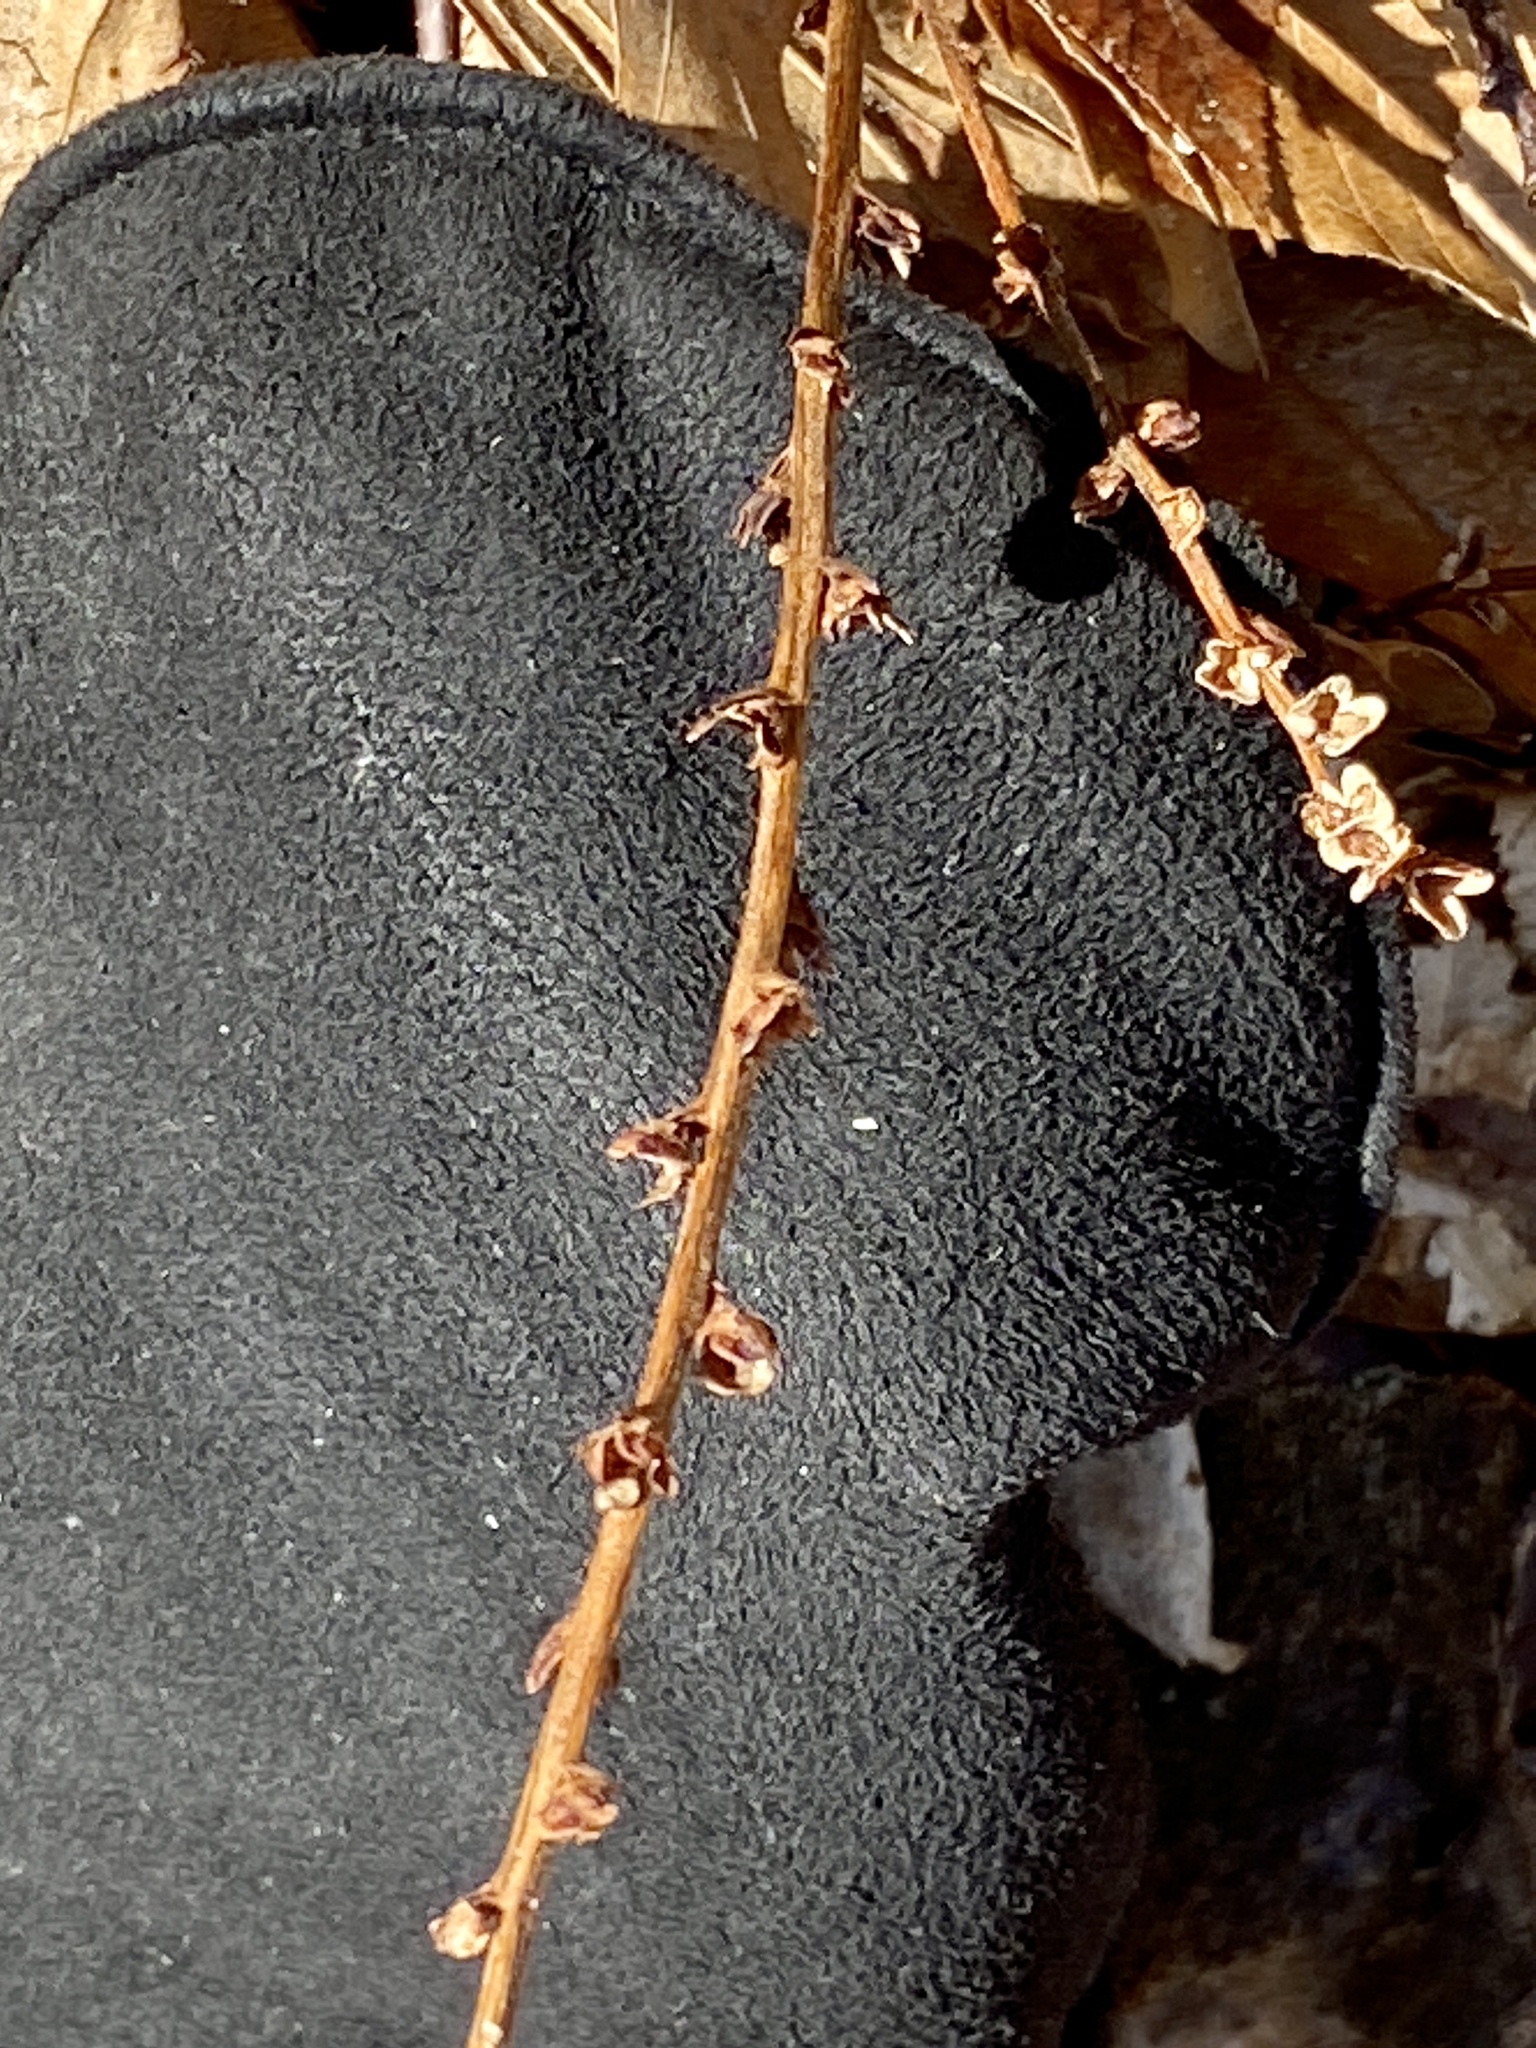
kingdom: Plantae
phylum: Tracheophyta
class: Magnoliopsida
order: Lamiales
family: Orobanchaceae
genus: Epifagus
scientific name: Epifagus virginiana
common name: Beechdrops
